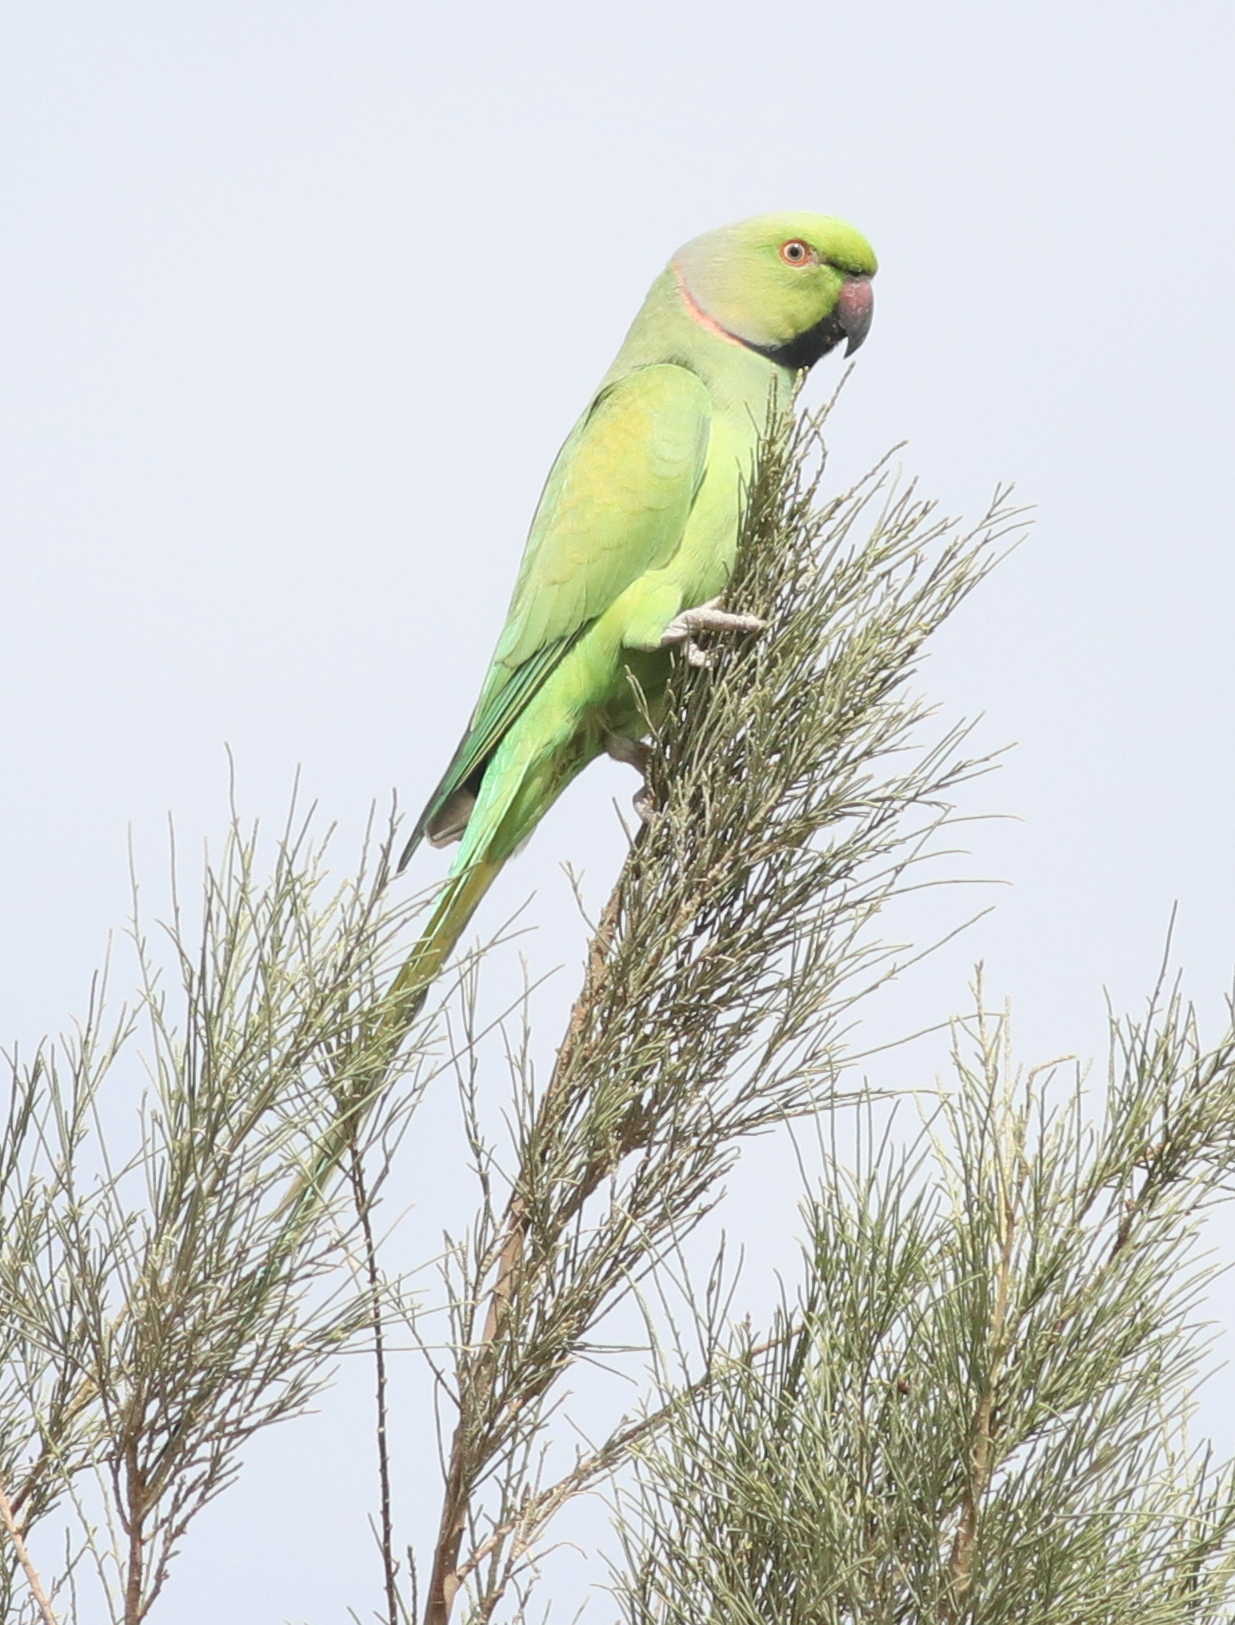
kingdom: Animalia
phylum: Chordata
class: Aves
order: Psittaciformes
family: Psittacidae
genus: Psittacula
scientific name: Psittacula krameri
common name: Rose-ringed parakeet
